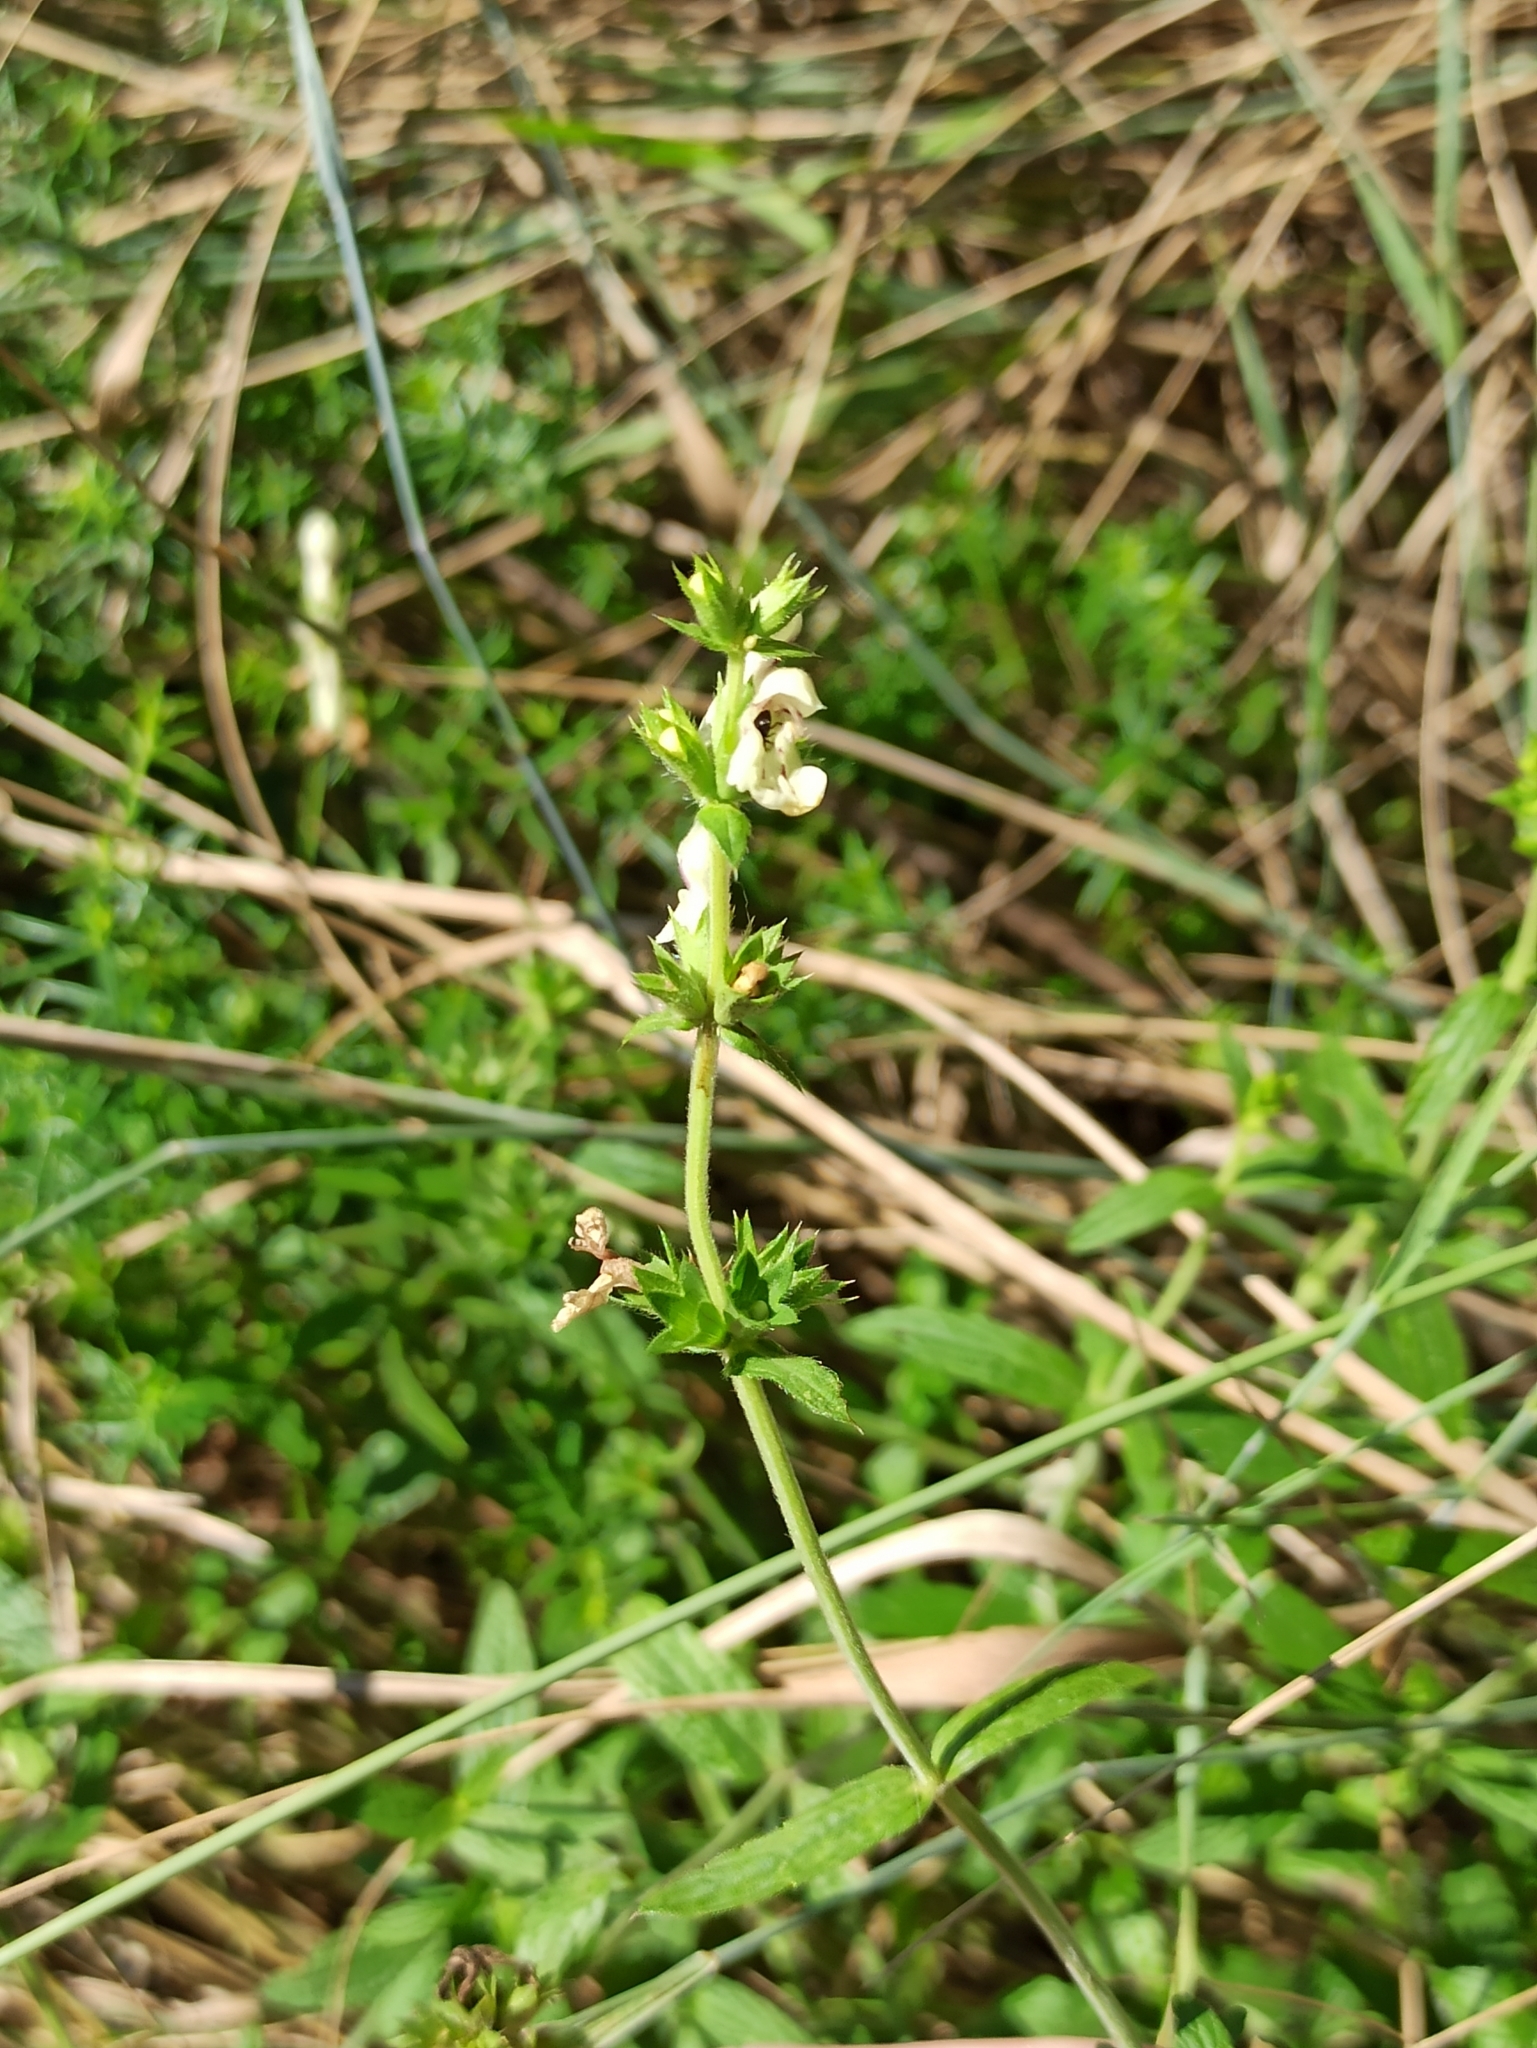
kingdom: Plantae
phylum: Tracheophyta
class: Magnoliopsida
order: Lamiales
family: Lamiaceae
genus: Stachys
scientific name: Stachys recta
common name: Perennial yellow-woundwort
